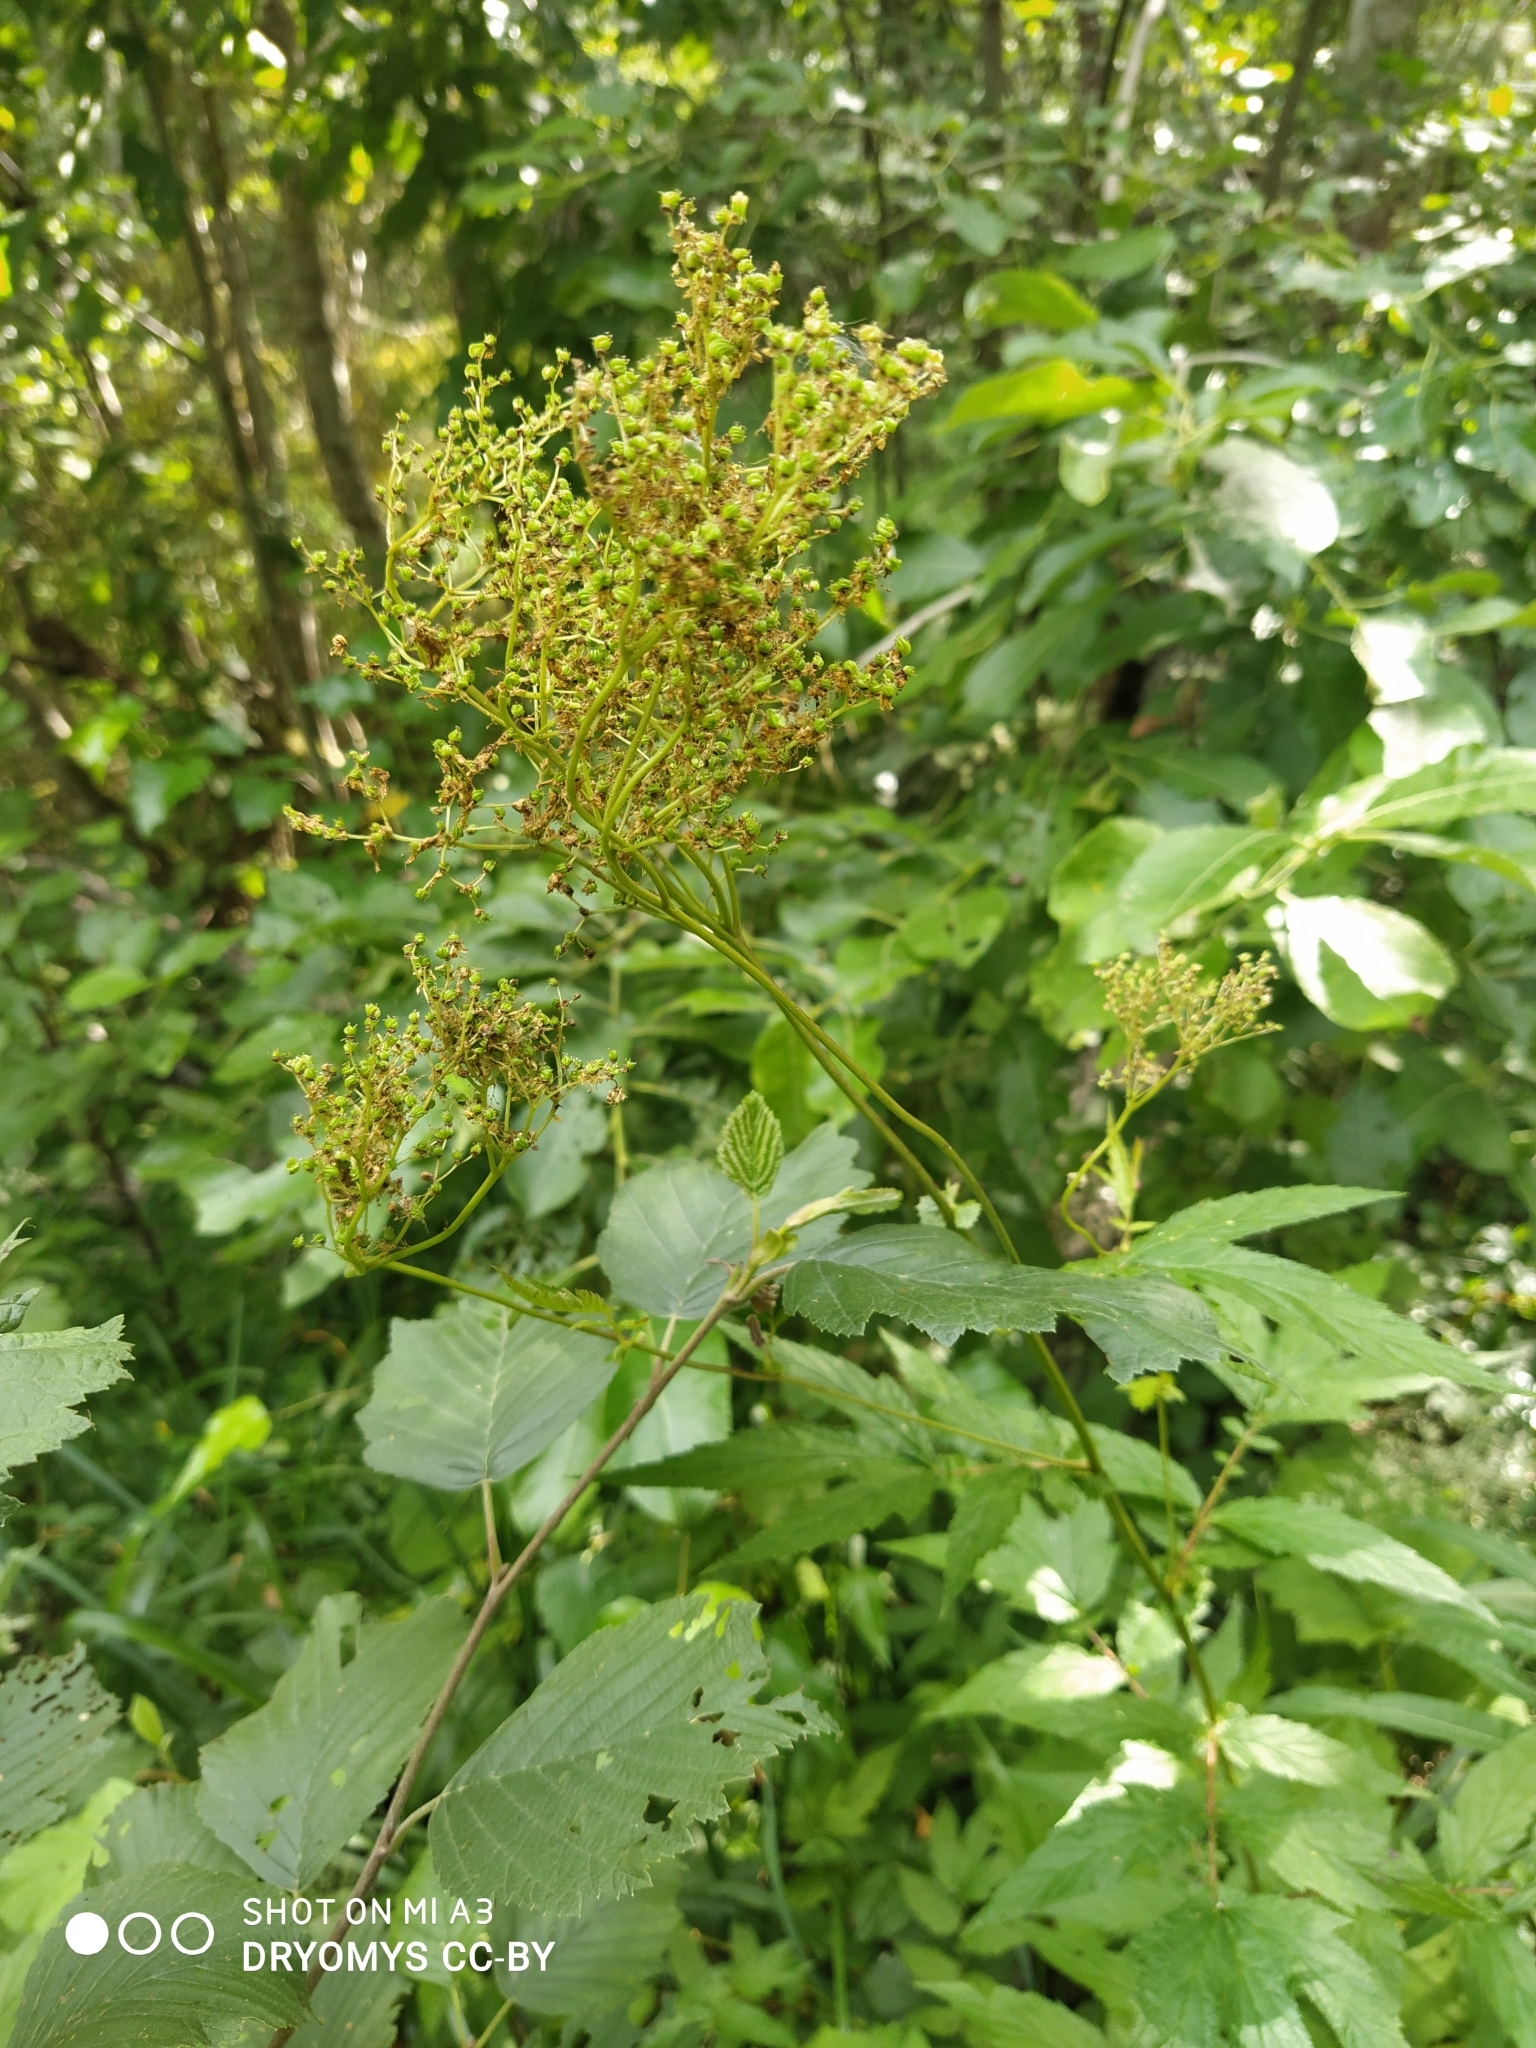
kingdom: Plantae
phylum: Tracheophyta
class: Magnoliopsida
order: Rosales
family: Rosaceae
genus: Filipendula
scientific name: Filipendula ulmaria
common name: Meadowsweet
